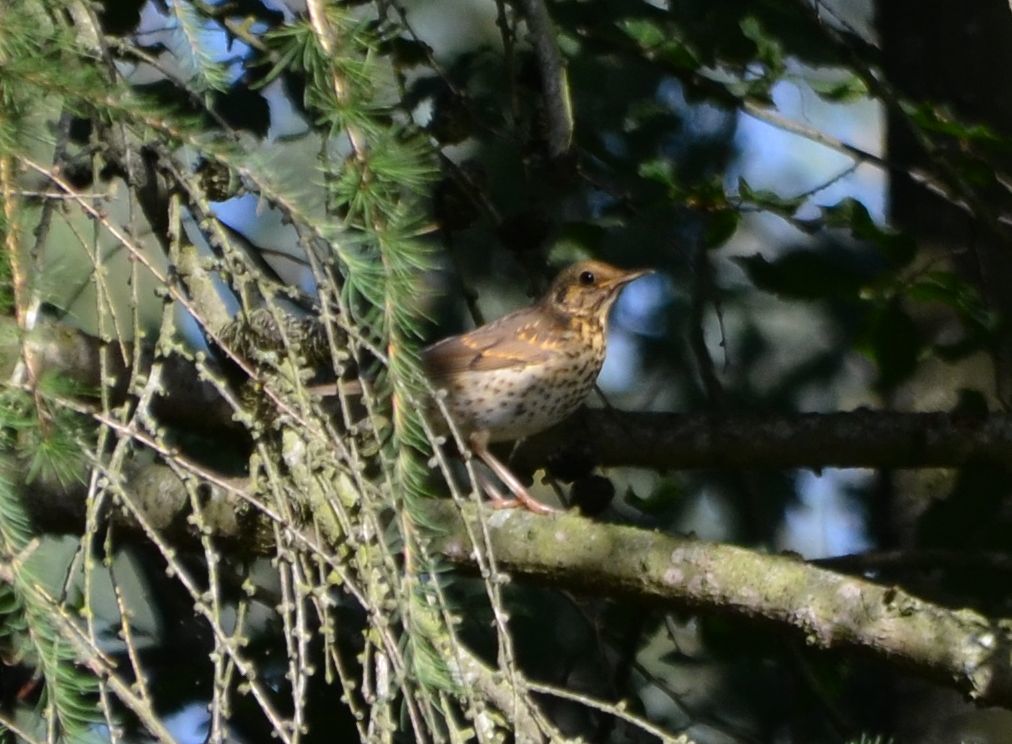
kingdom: Animalia
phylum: Chordata
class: Aves
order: Passeriformes
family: Turdidae
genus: Turdus
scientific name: Turdus philomelos
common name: Song thrush
